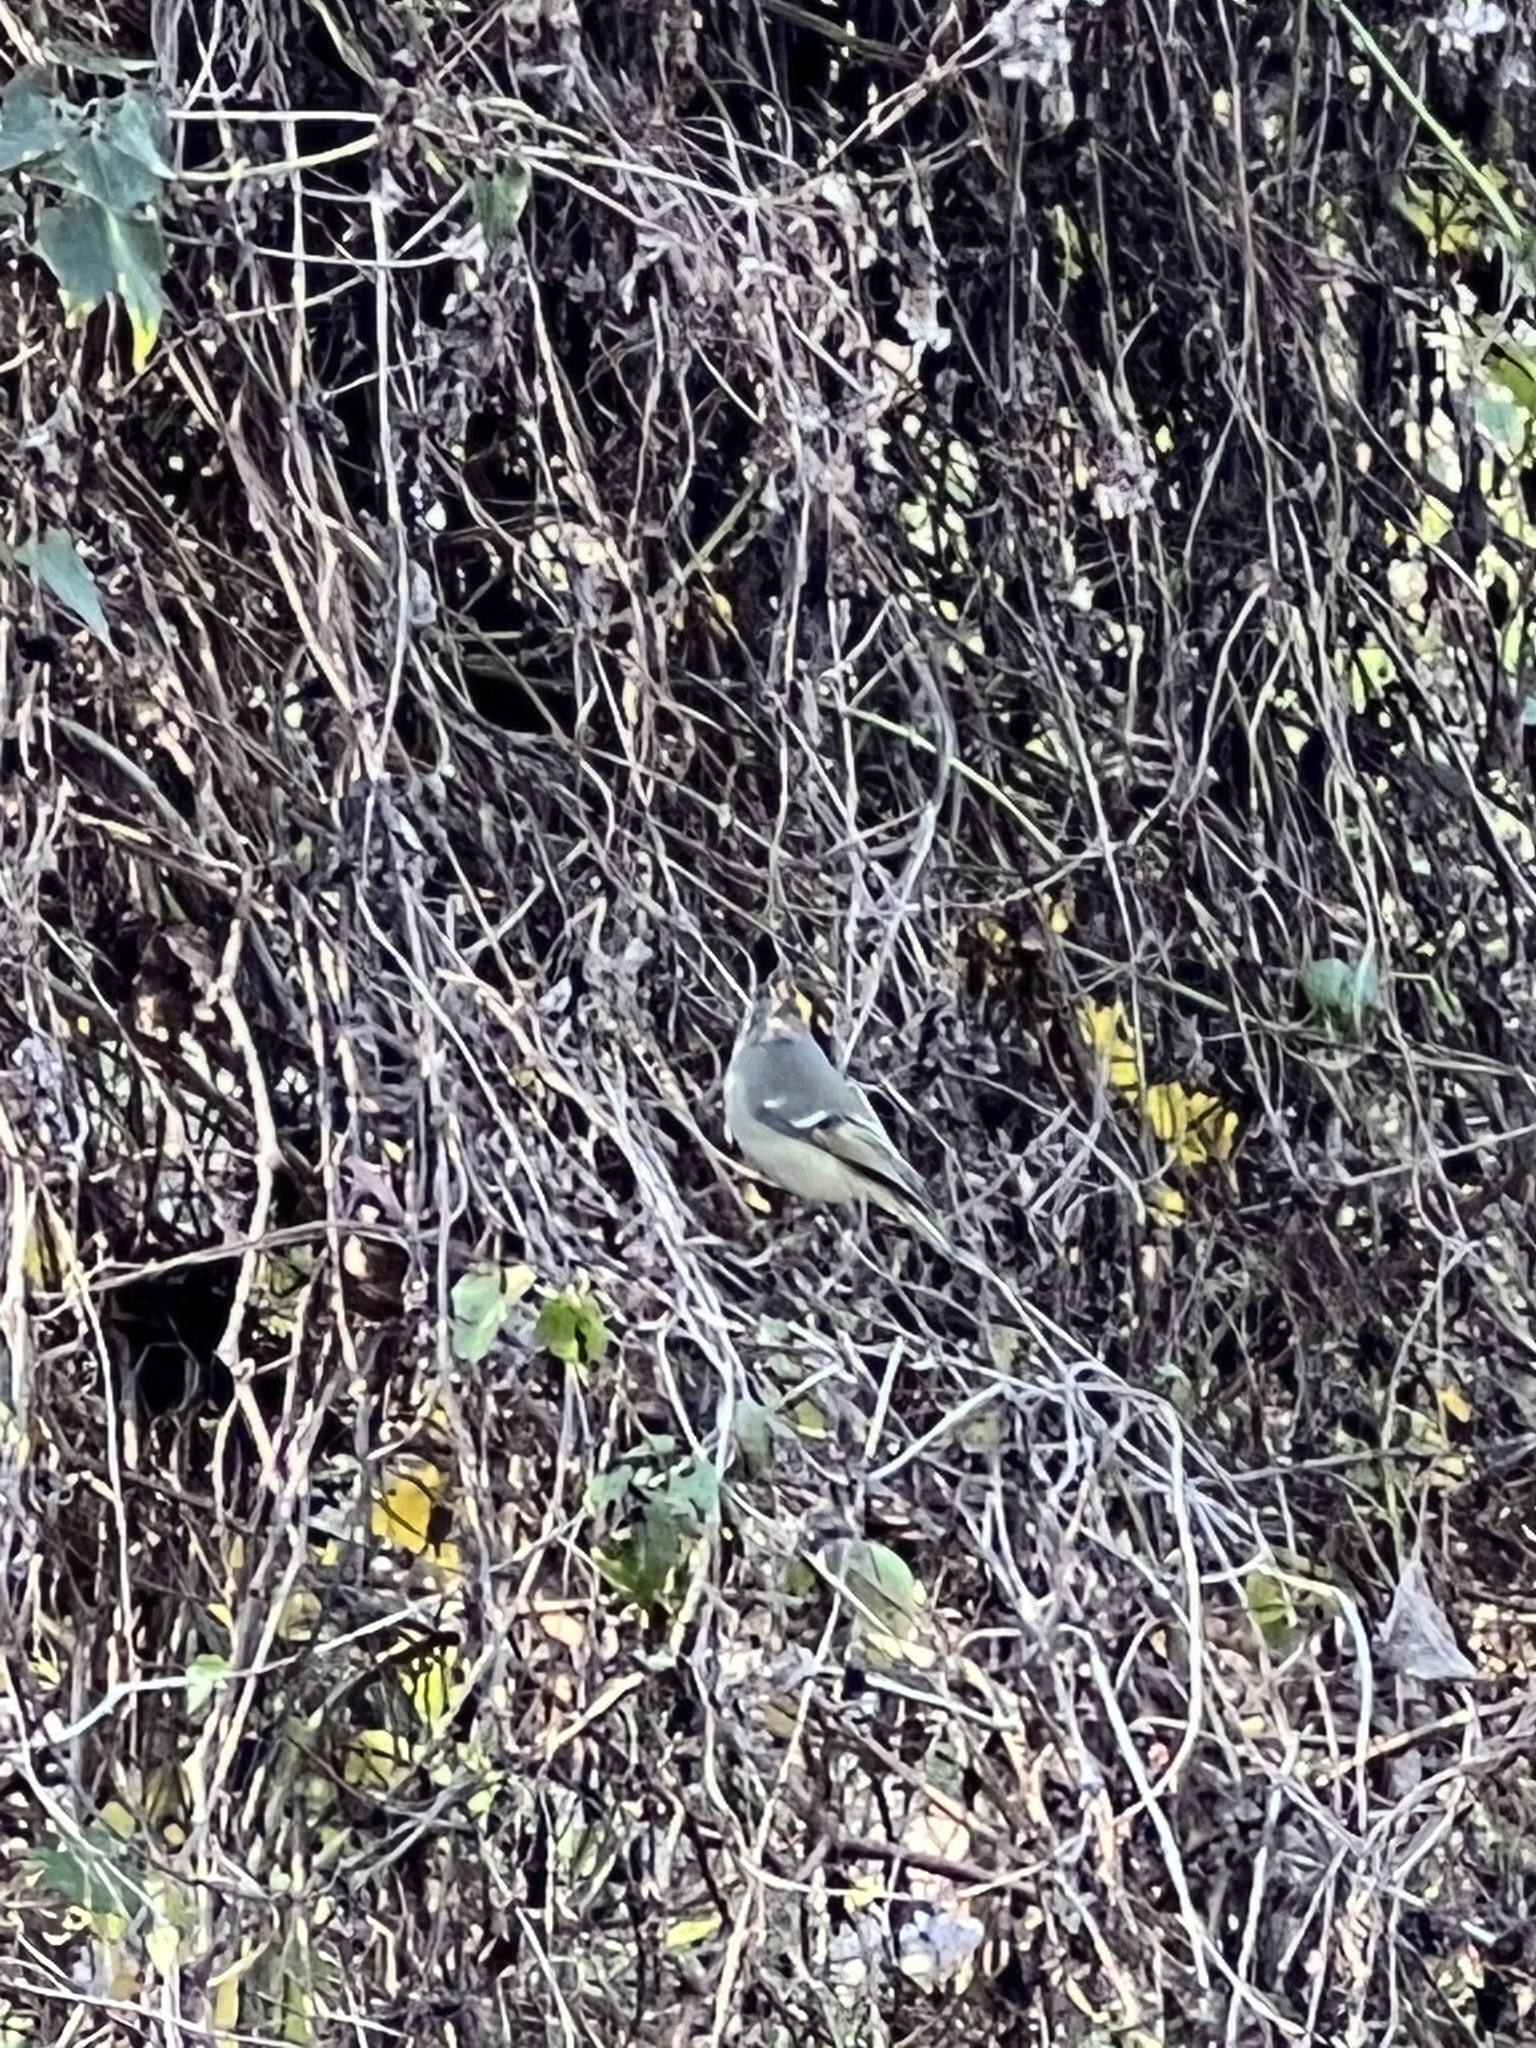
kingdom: Animalia
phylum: Chordata
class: Aves
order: Passeriformes
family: Regulidae
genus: Regulus
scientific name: Regulus calendula
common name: Ruby-crowned kinglet
